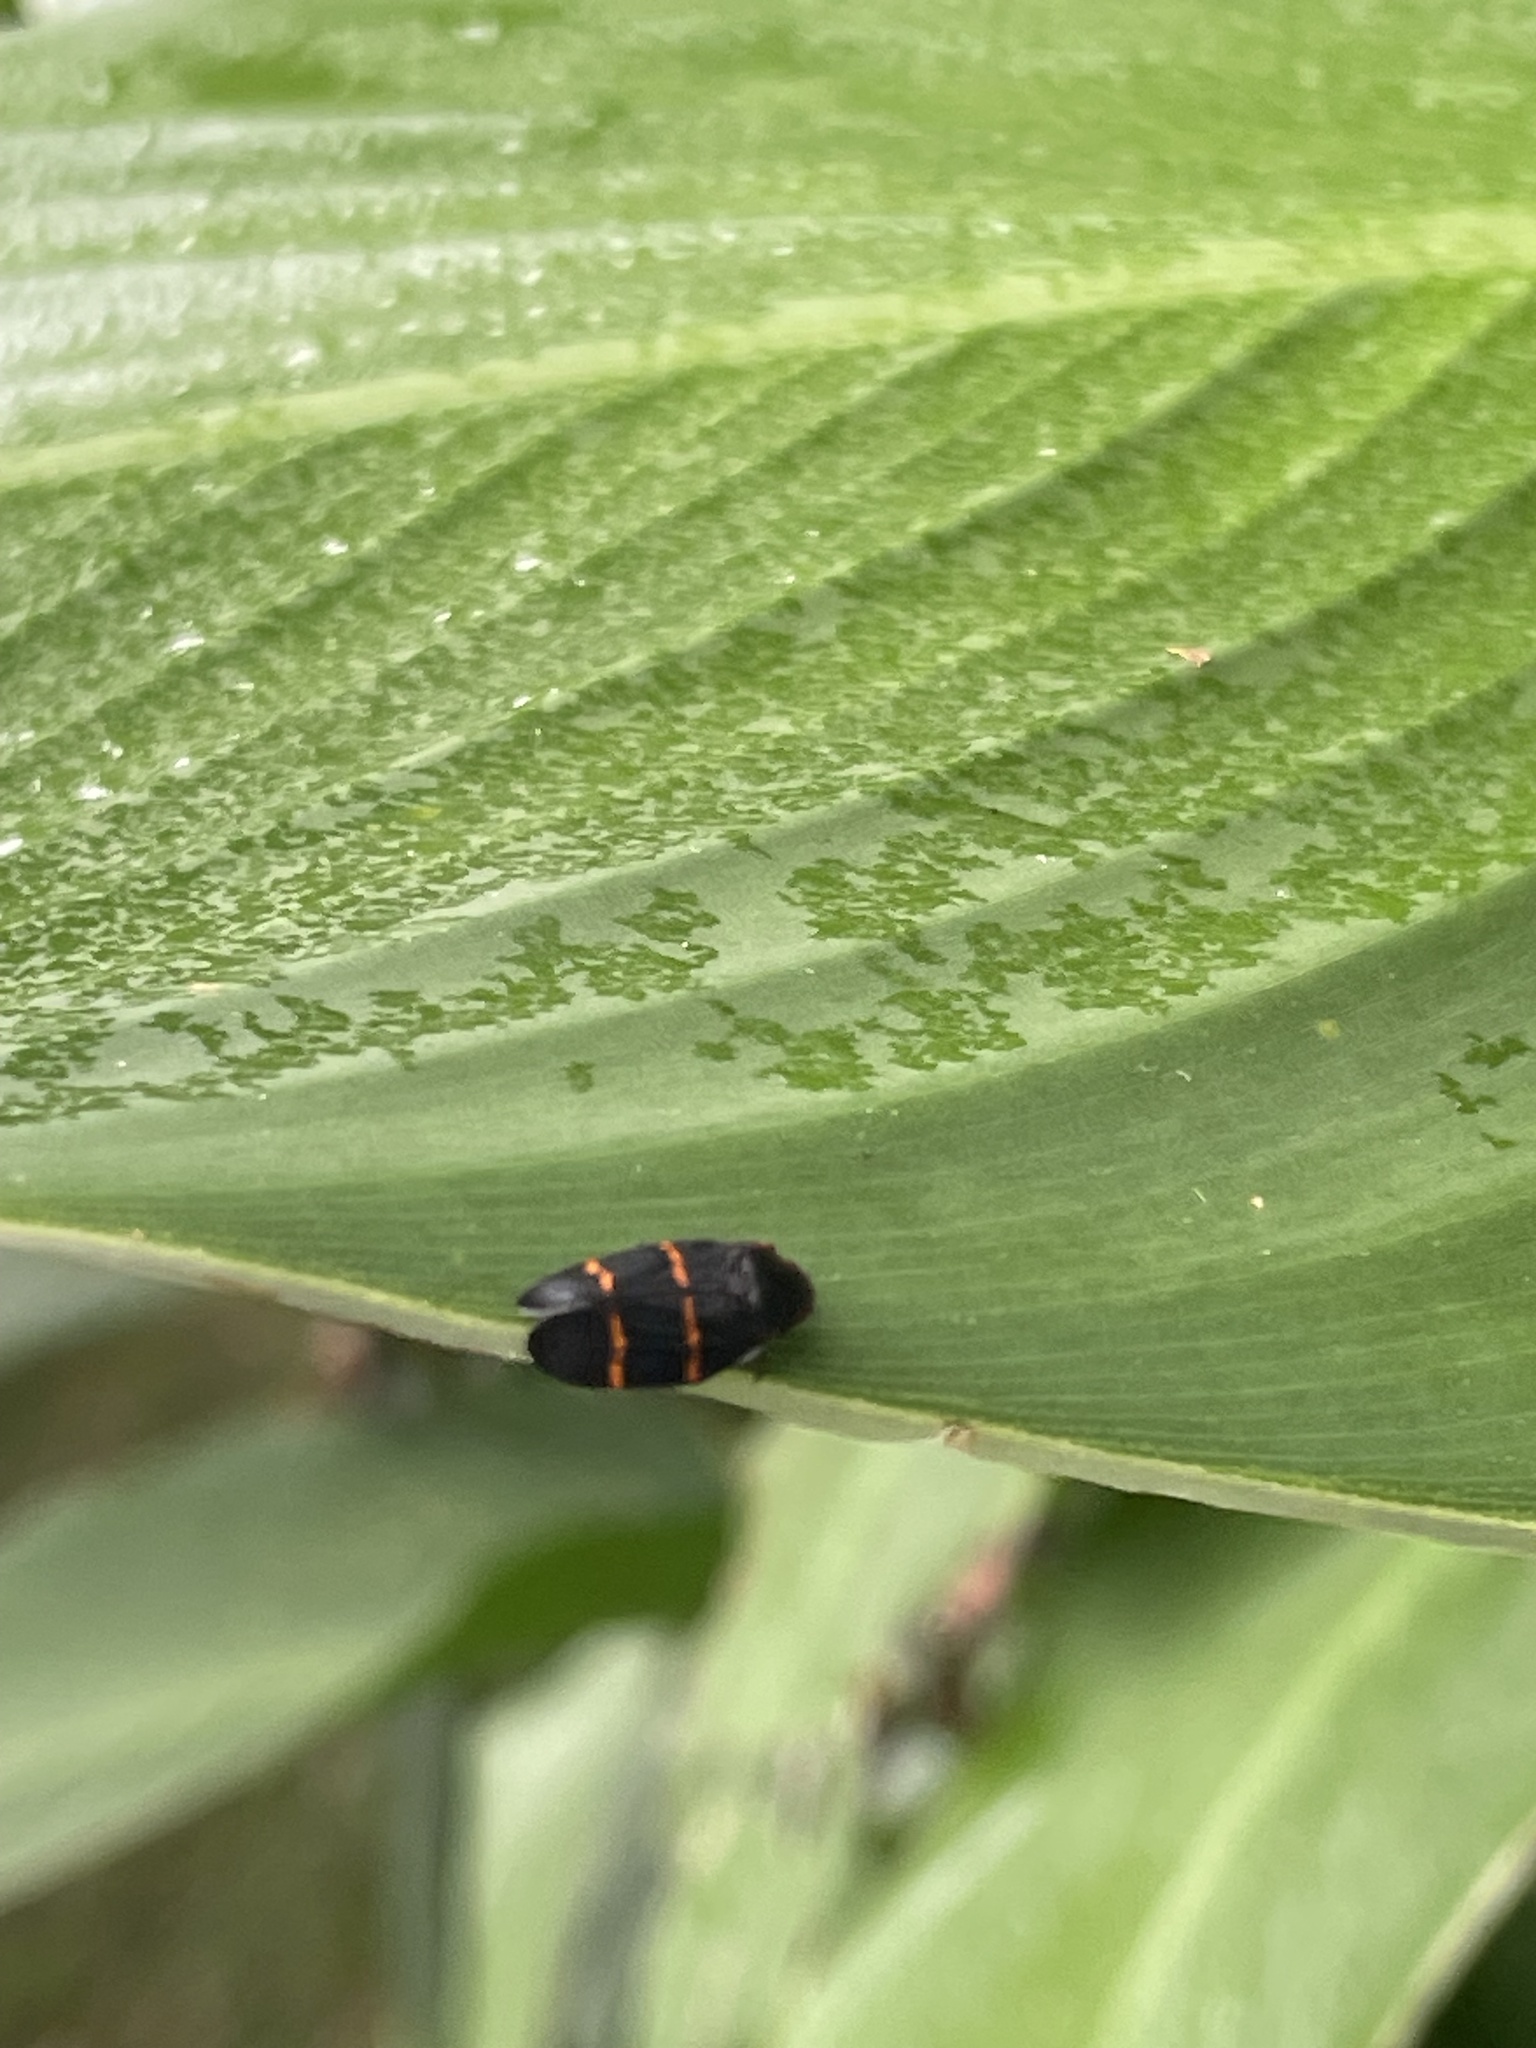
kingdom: Animalia
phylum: Arthropoda
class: Insecta
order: Hemiptera
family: Cercopidae
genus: Prosapia
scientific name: Prosapia bicincta
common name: Twolined spittlebug
